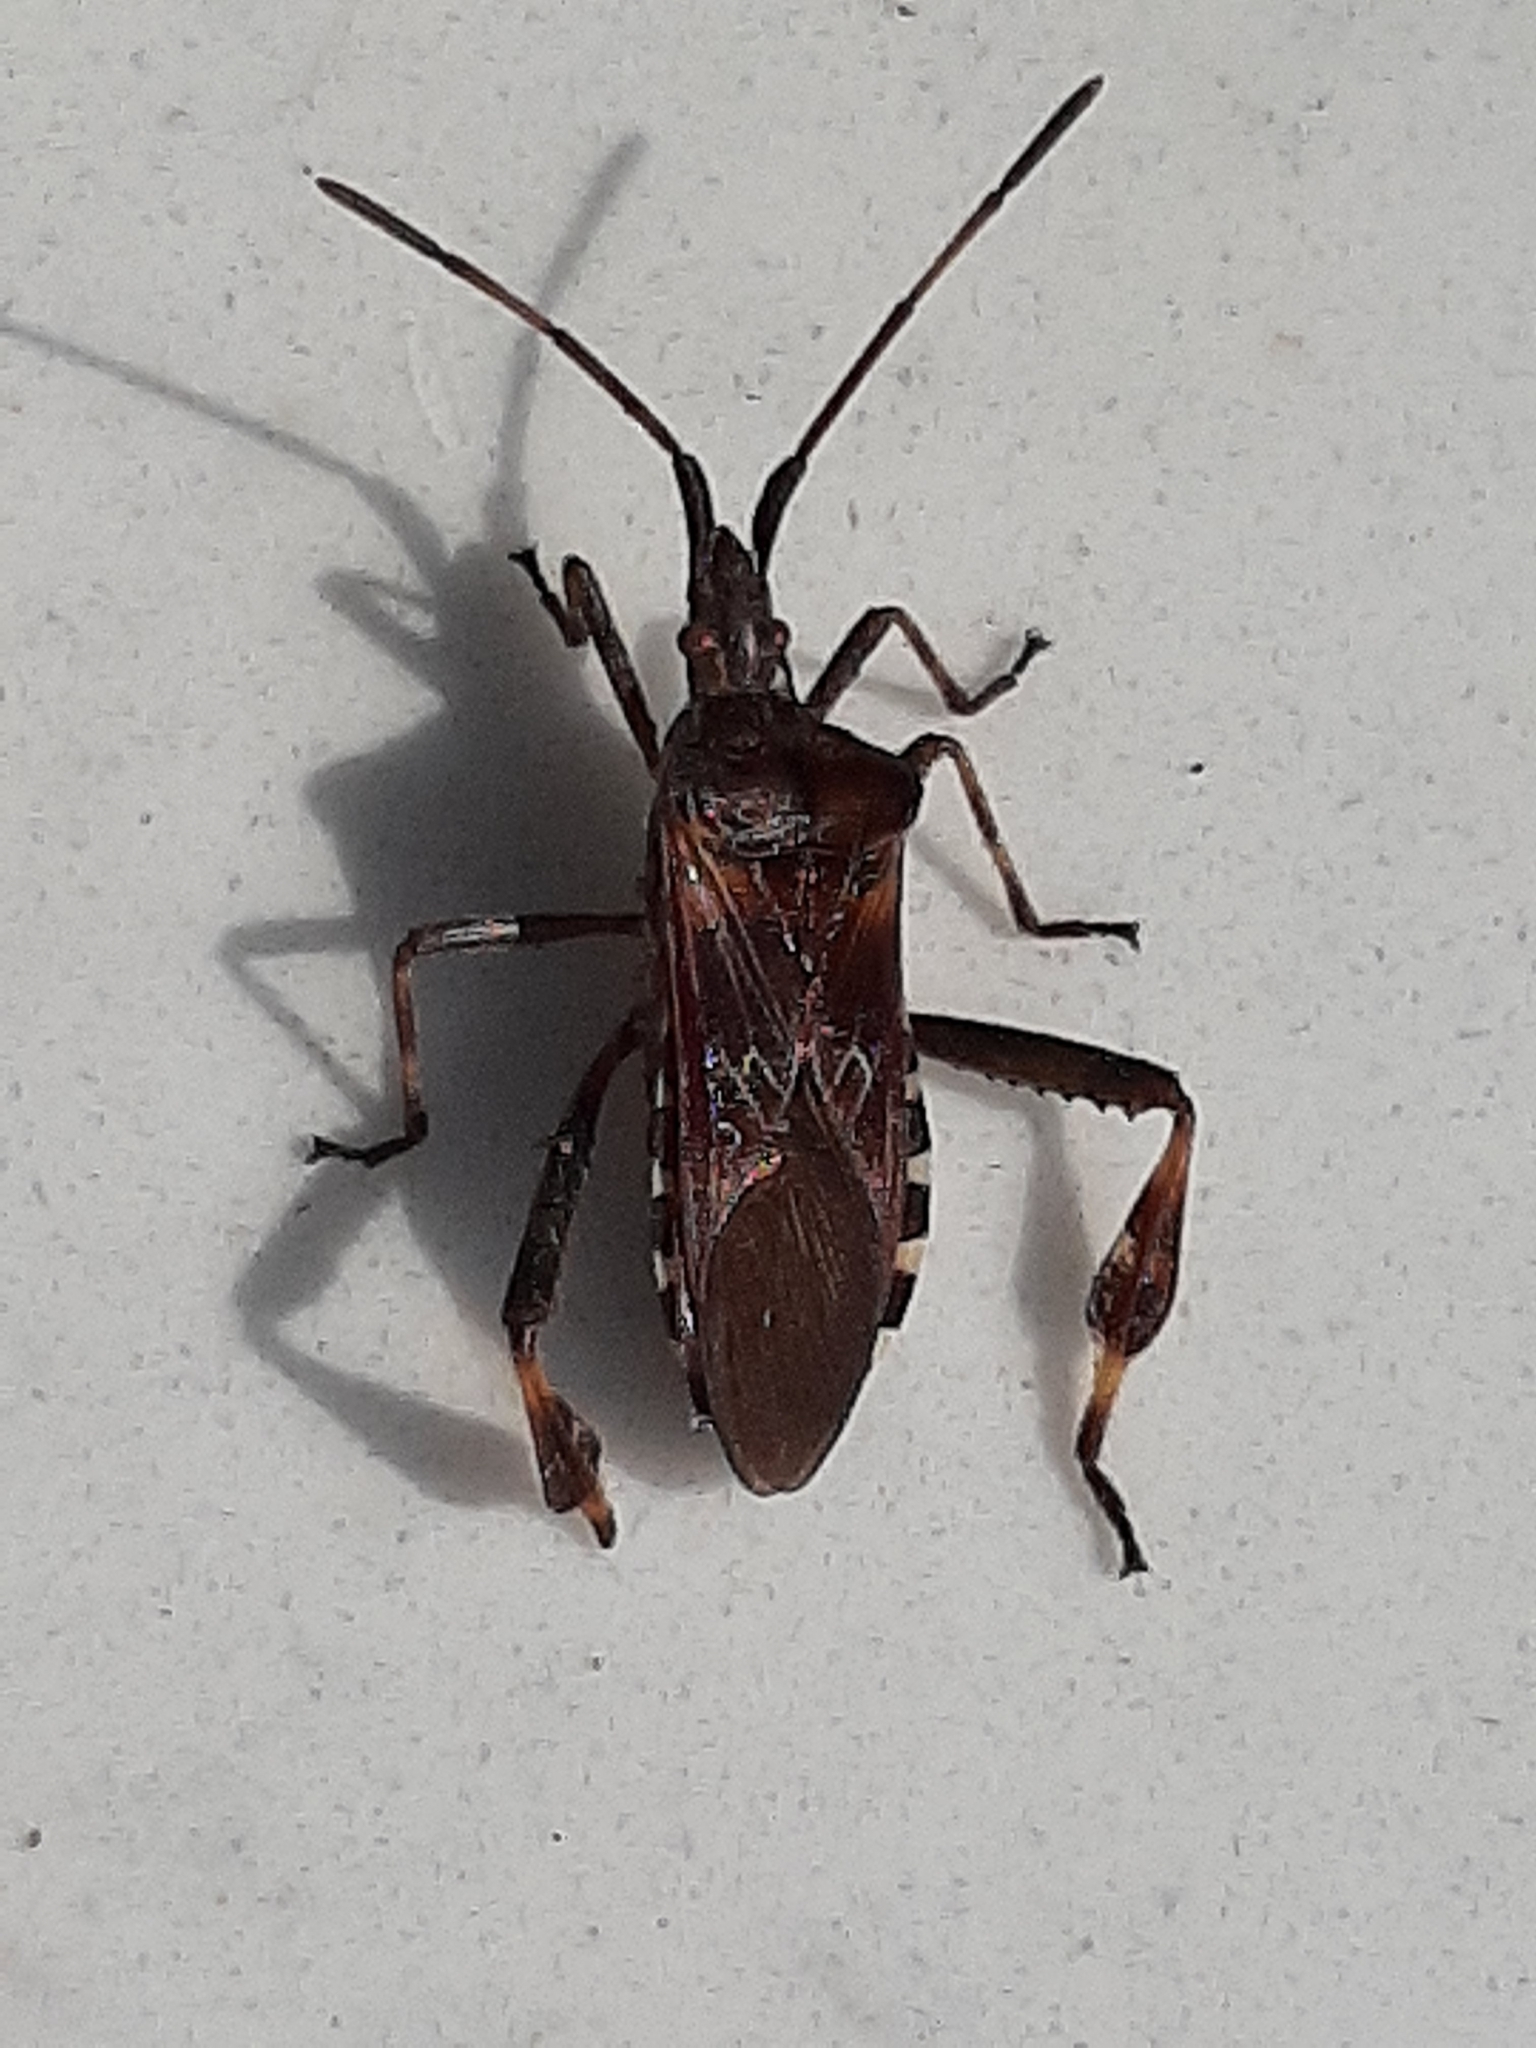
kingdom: Animalia
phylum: Arthropoda
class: Insecta
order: Hemiptera
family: Coreidae
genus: Leptoglossus
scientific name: Leptoglossus occidentalis
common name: Western conifer-seed bug
